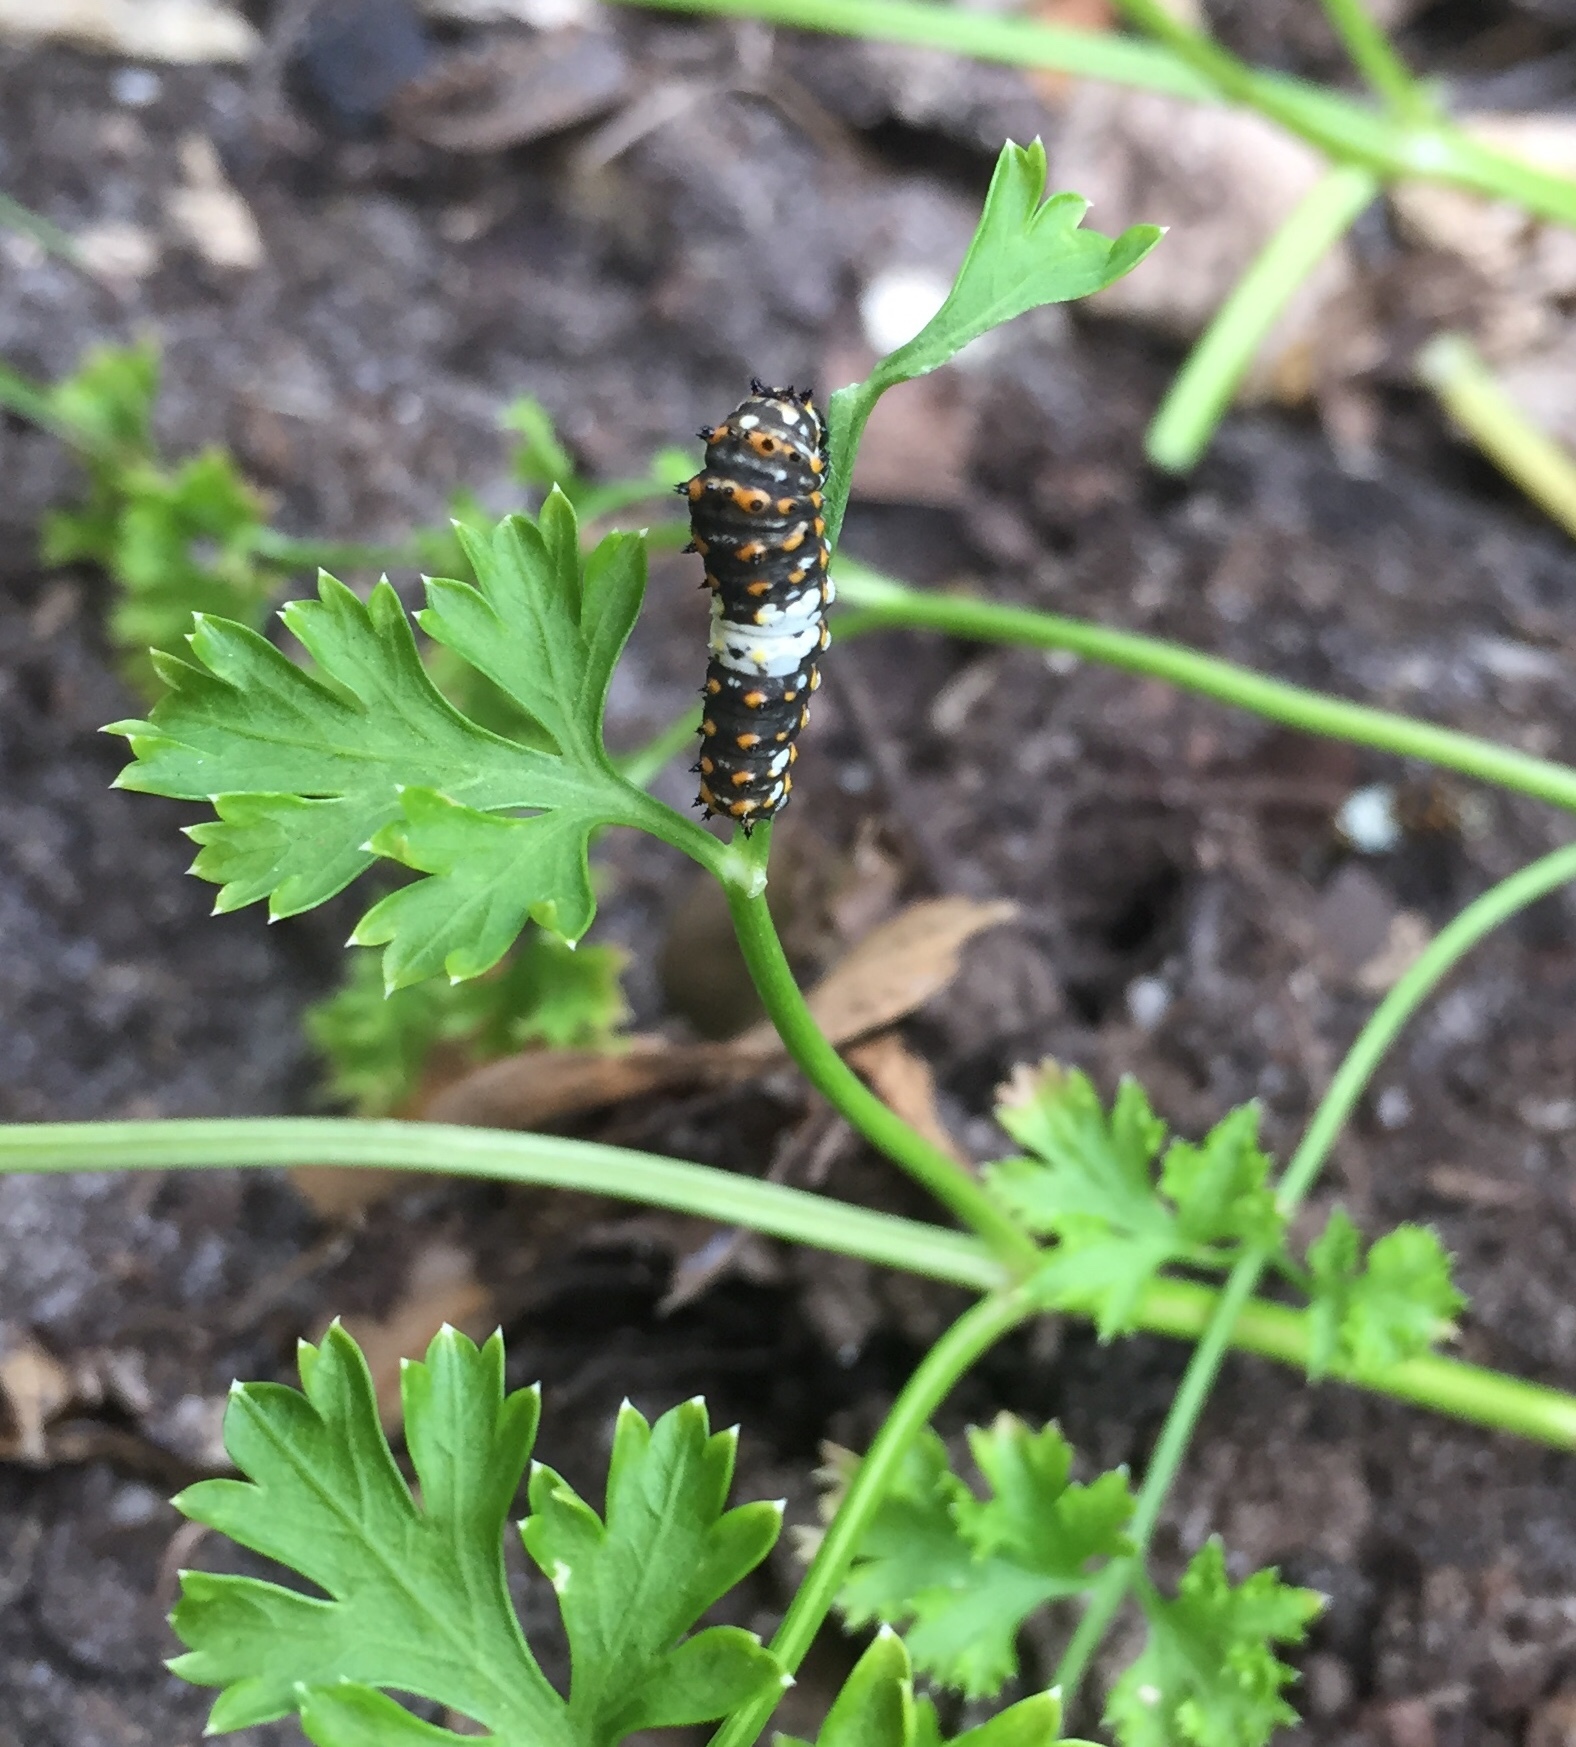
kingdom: Animalia
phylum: Arthropoda
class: Insecta
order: Lepidoptera
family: Papilionidae
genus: Papilio
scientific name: Papilio polyxenes
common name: Black swallowtail
